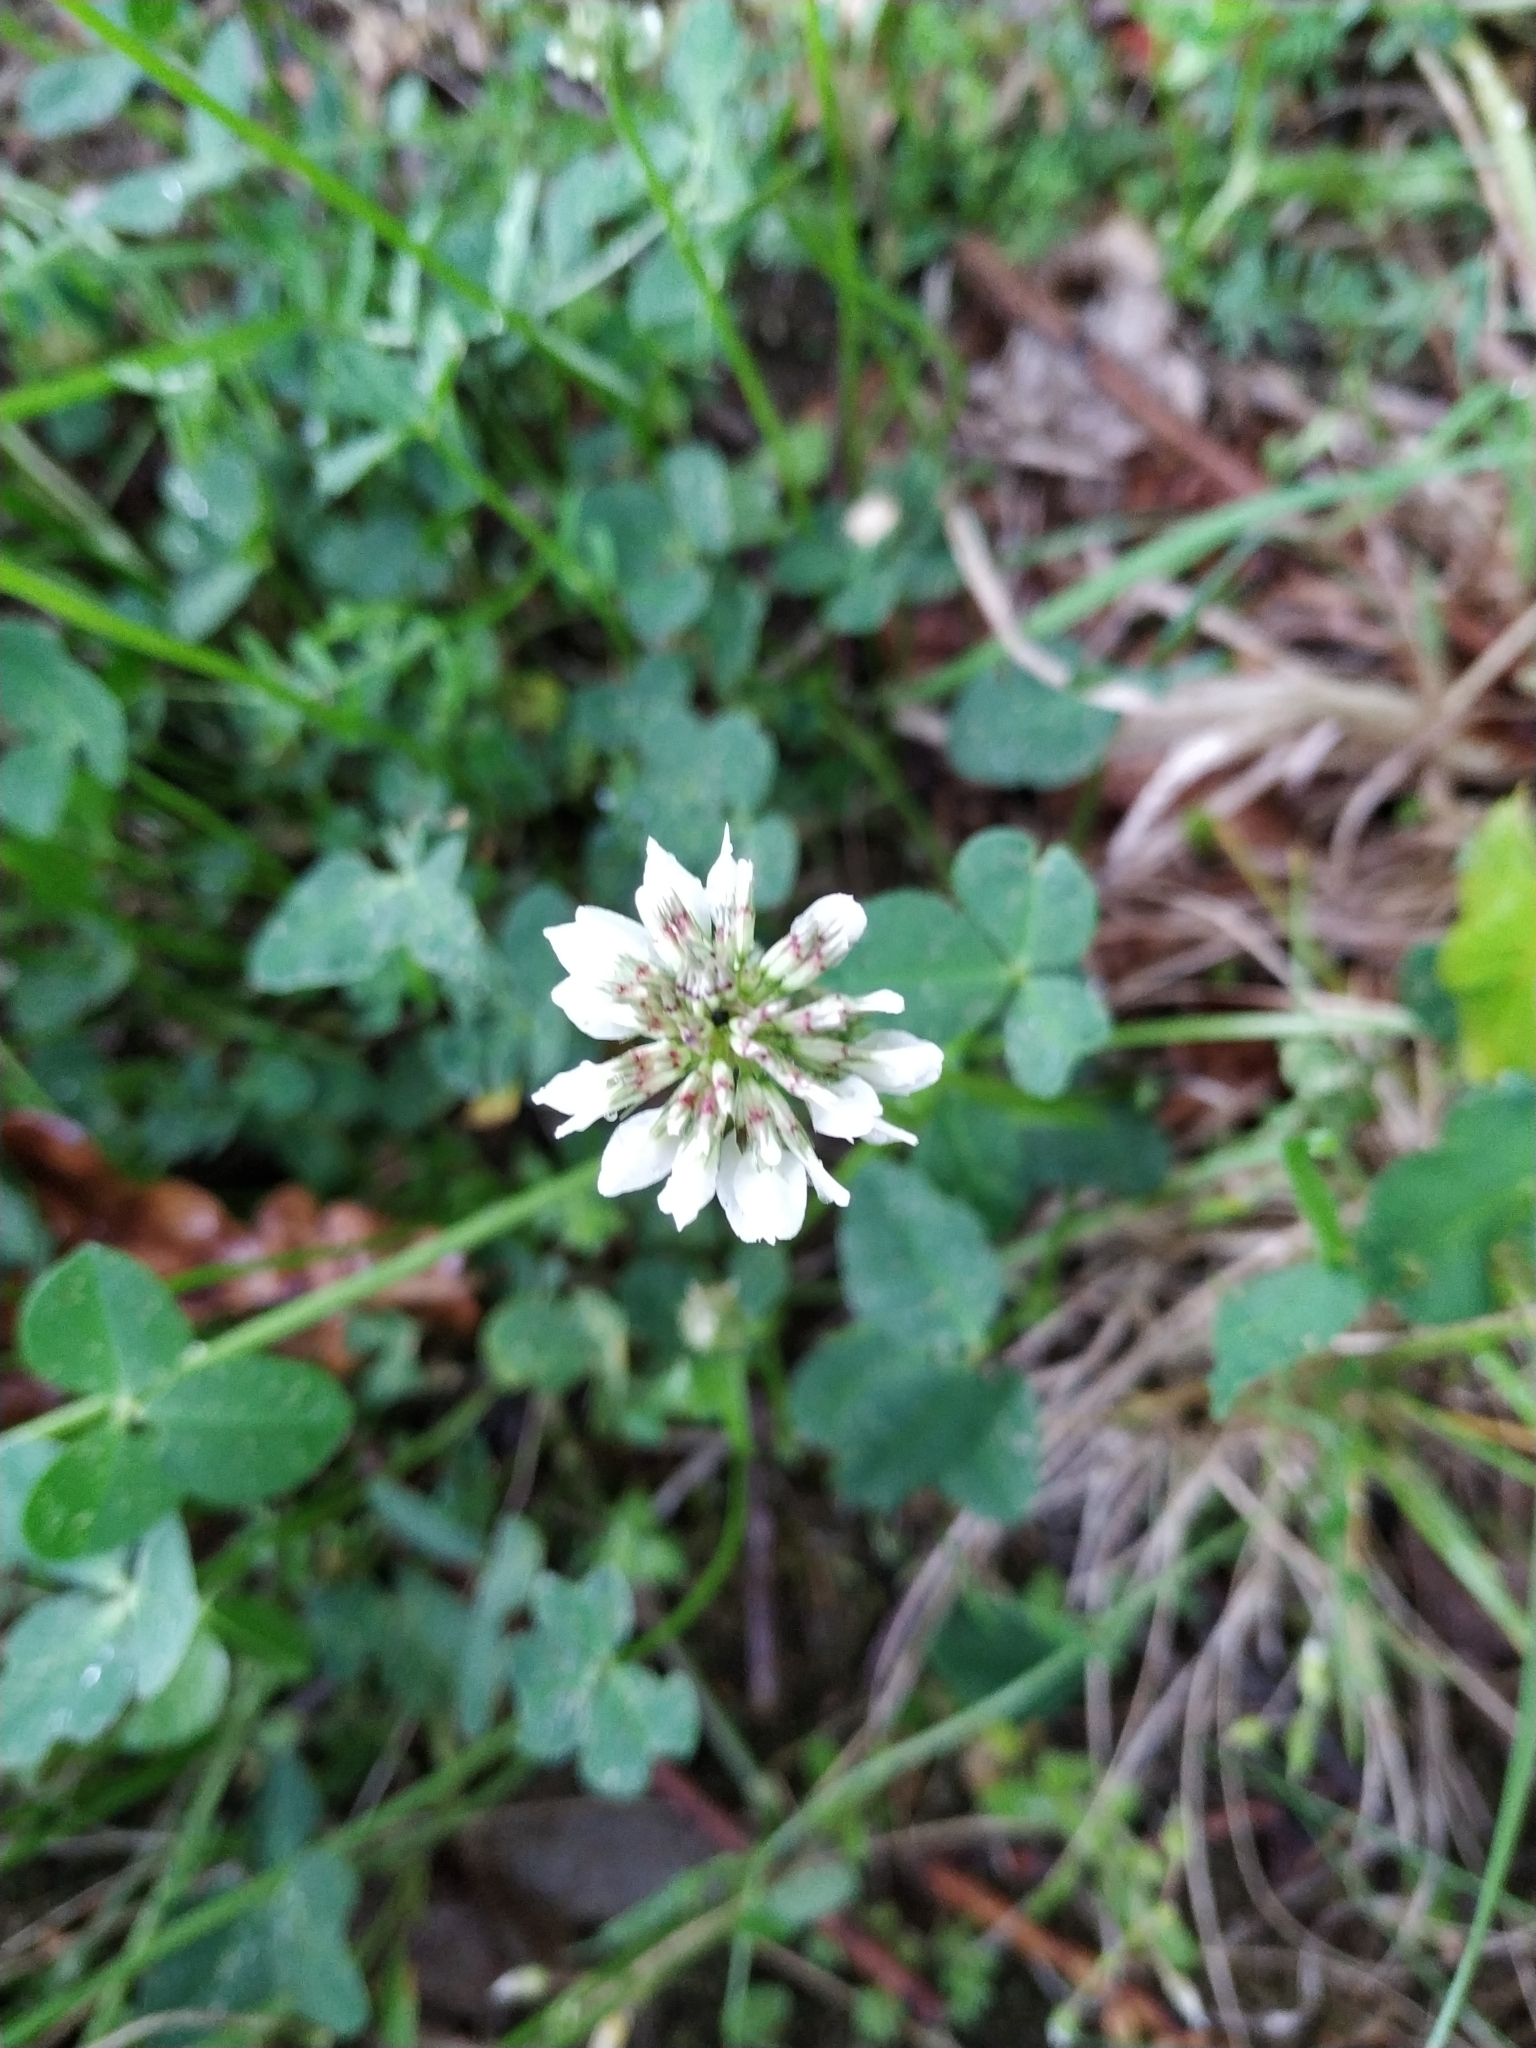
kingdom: Plantae
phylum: Tracheophyta
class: Magnoliopsida
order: Fabales
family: Fabaceae
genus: Trifolium
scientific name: Trifolium repens
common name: White clover
